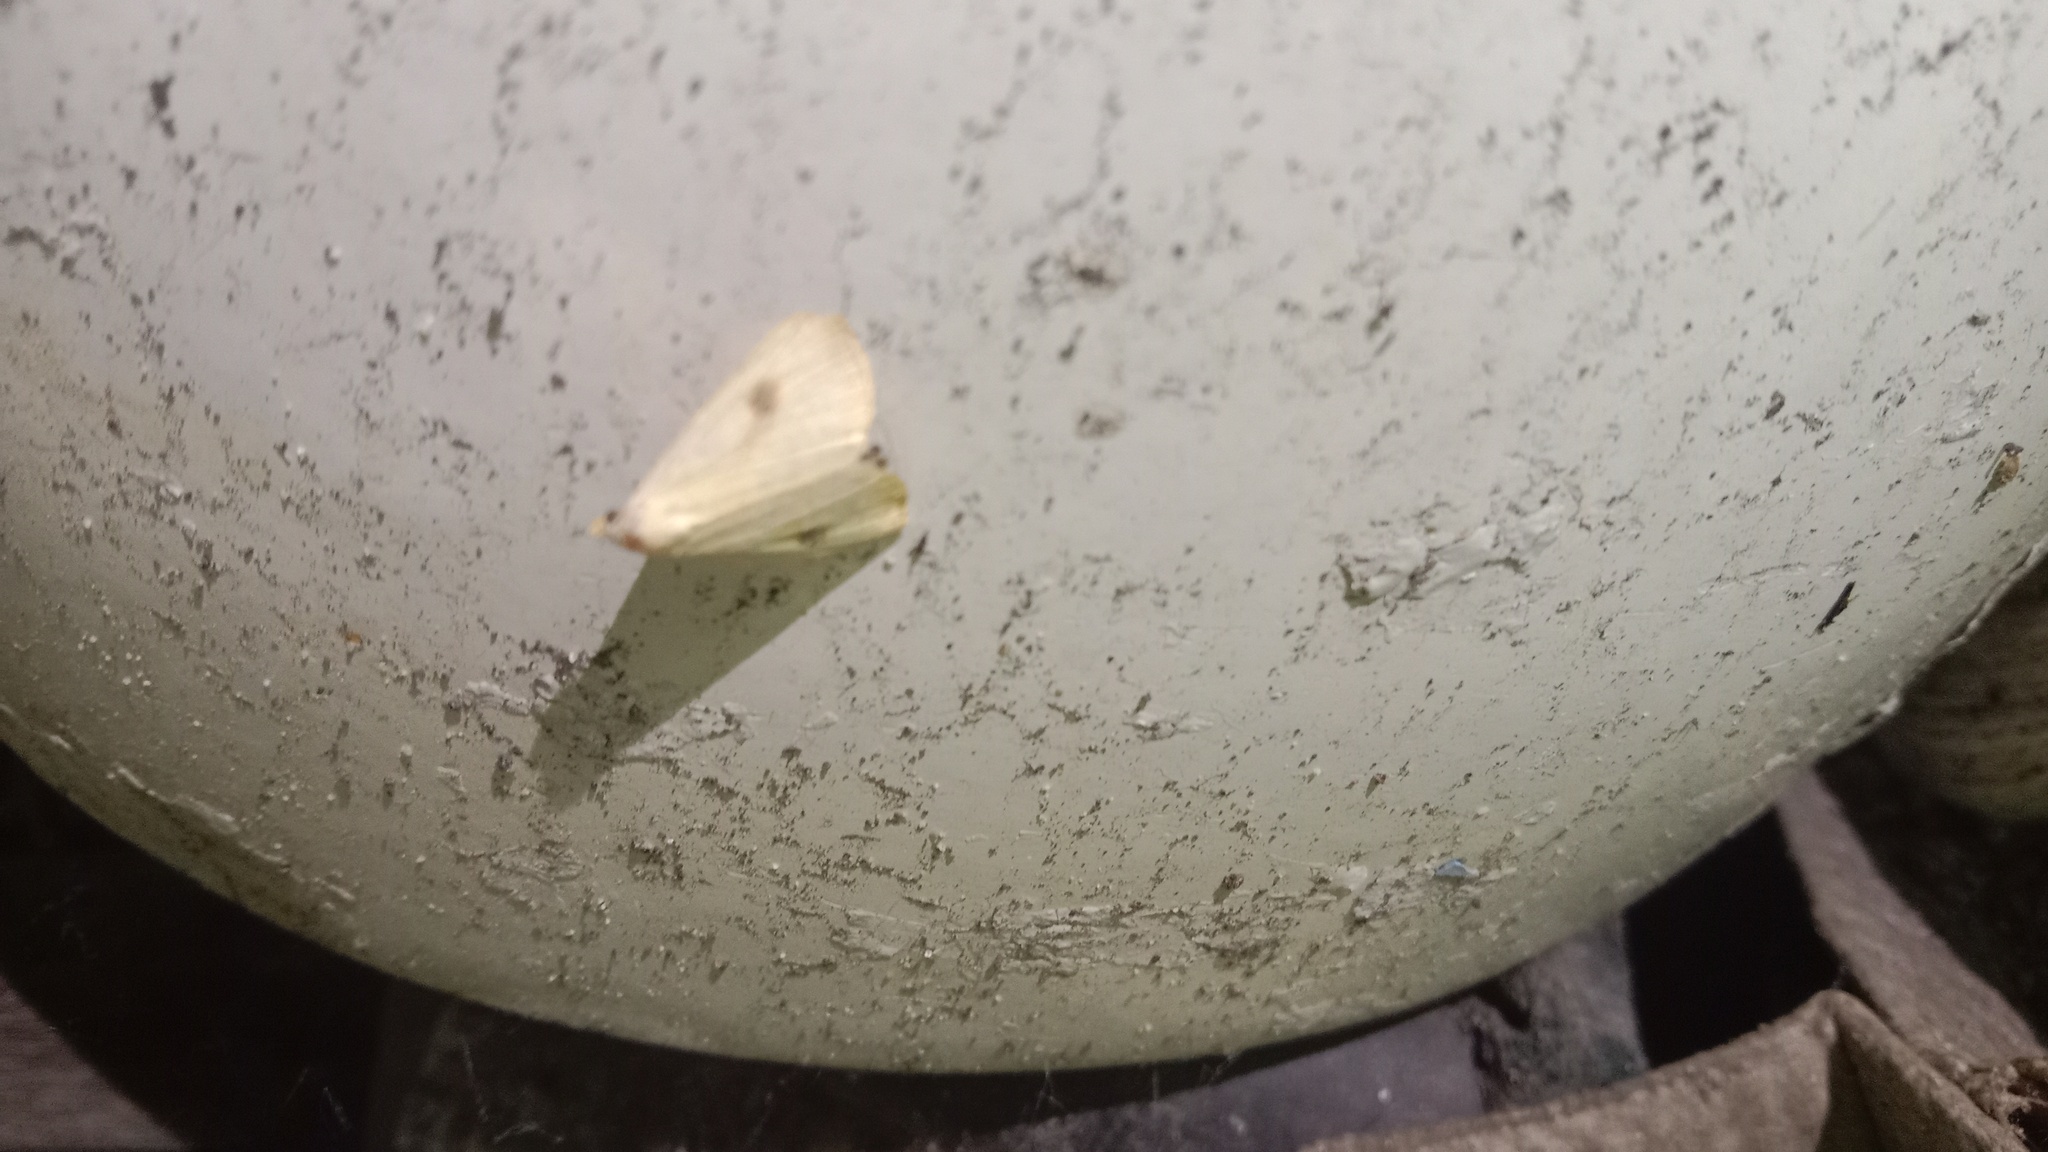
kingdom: Animalia
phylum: Arthropoda
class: Insecta
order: Lepidoptera
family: Erebidae
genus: Rivula
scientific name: Rivula sericealis
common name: Straw dot
